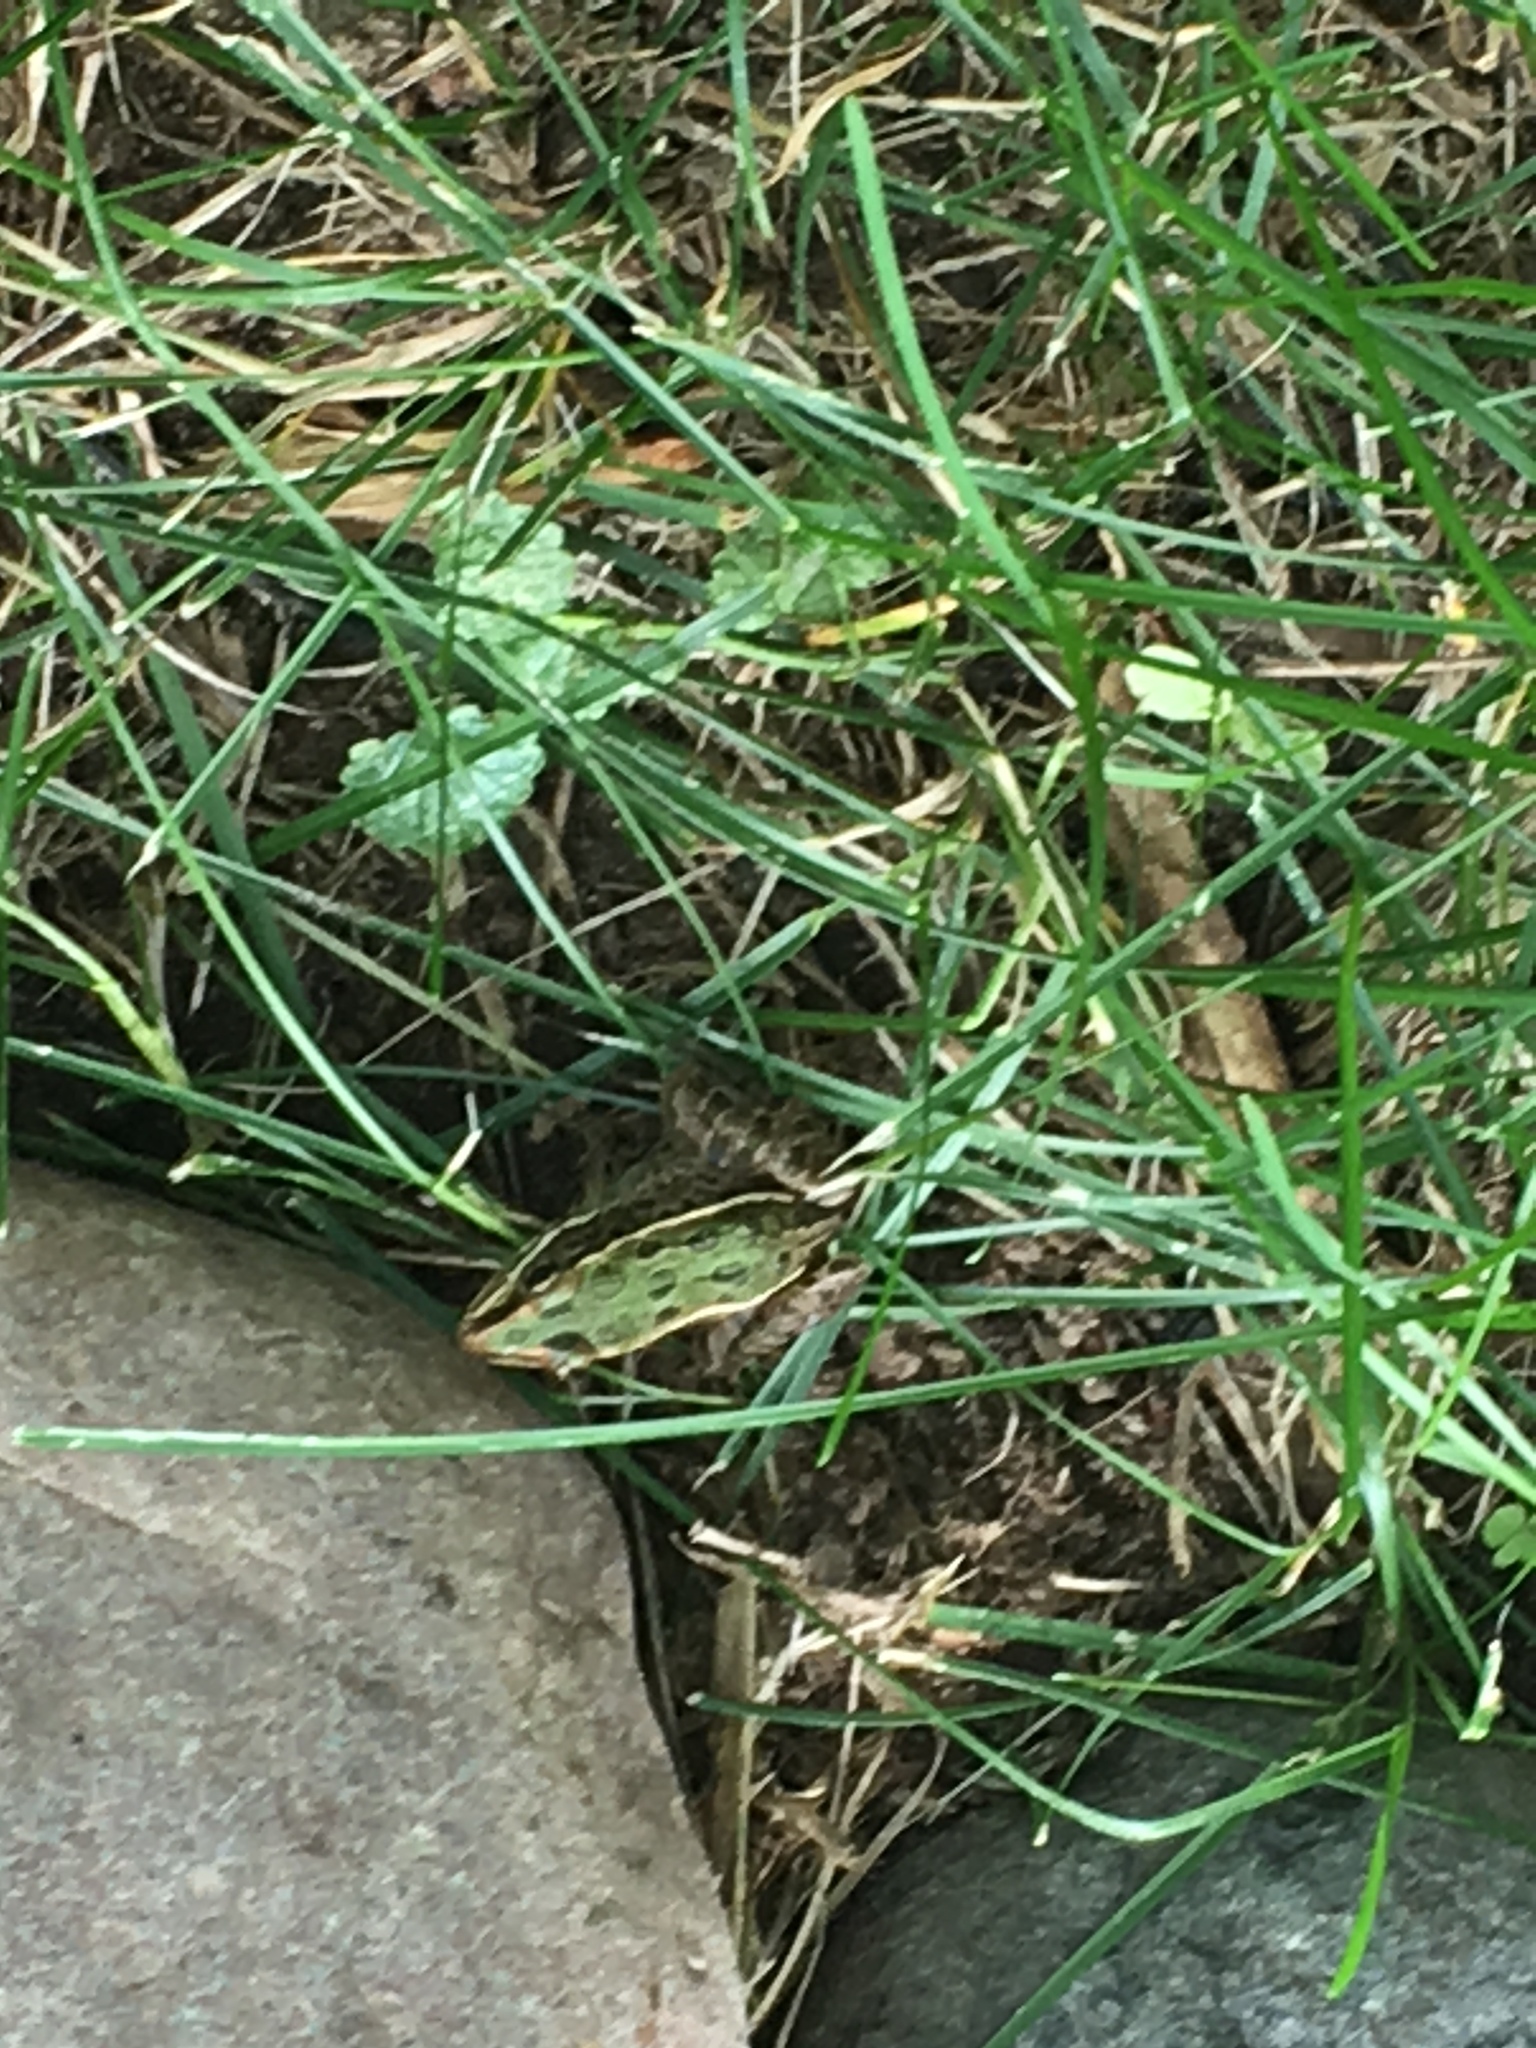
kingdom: Animalia
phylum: Chordata
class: Amphibia
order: Anura
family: Ranidae
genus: Lithobates
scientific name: Lithobates pipiens
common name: Northern leopard frog
